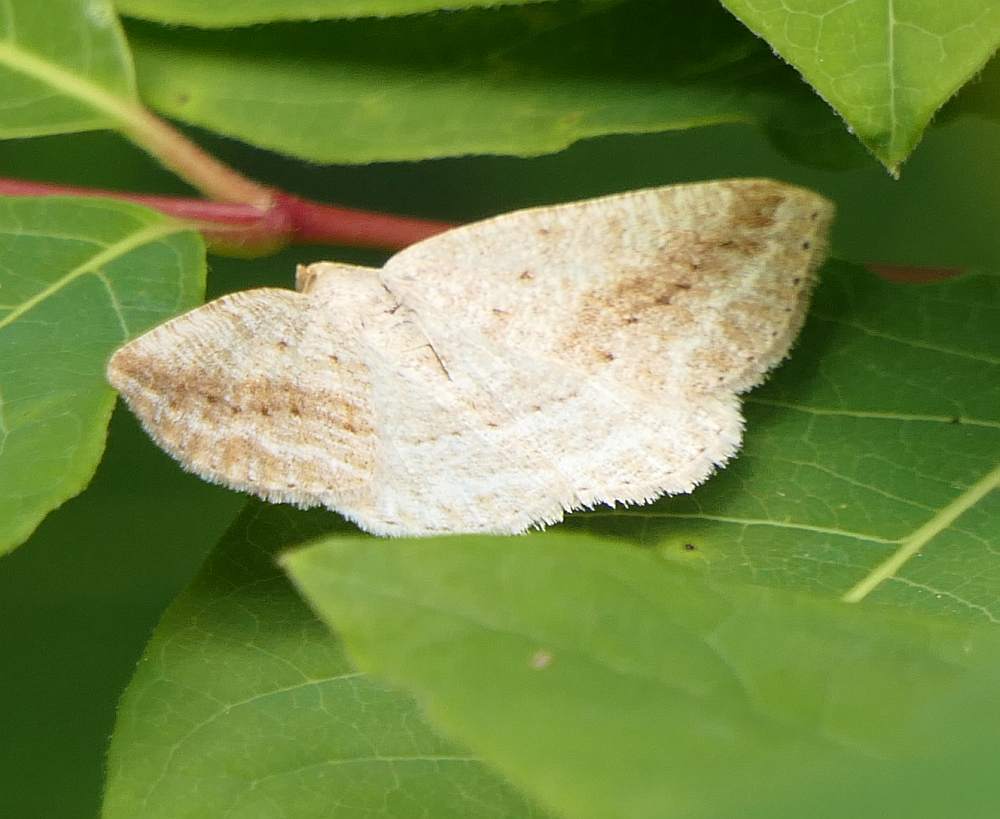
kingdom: Animalia
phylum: Arthropoda
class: Insecta
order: Lepidoptera
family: Geometridae
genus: Tacparia
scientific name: Tacparia detersata
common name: Pale alder moth
